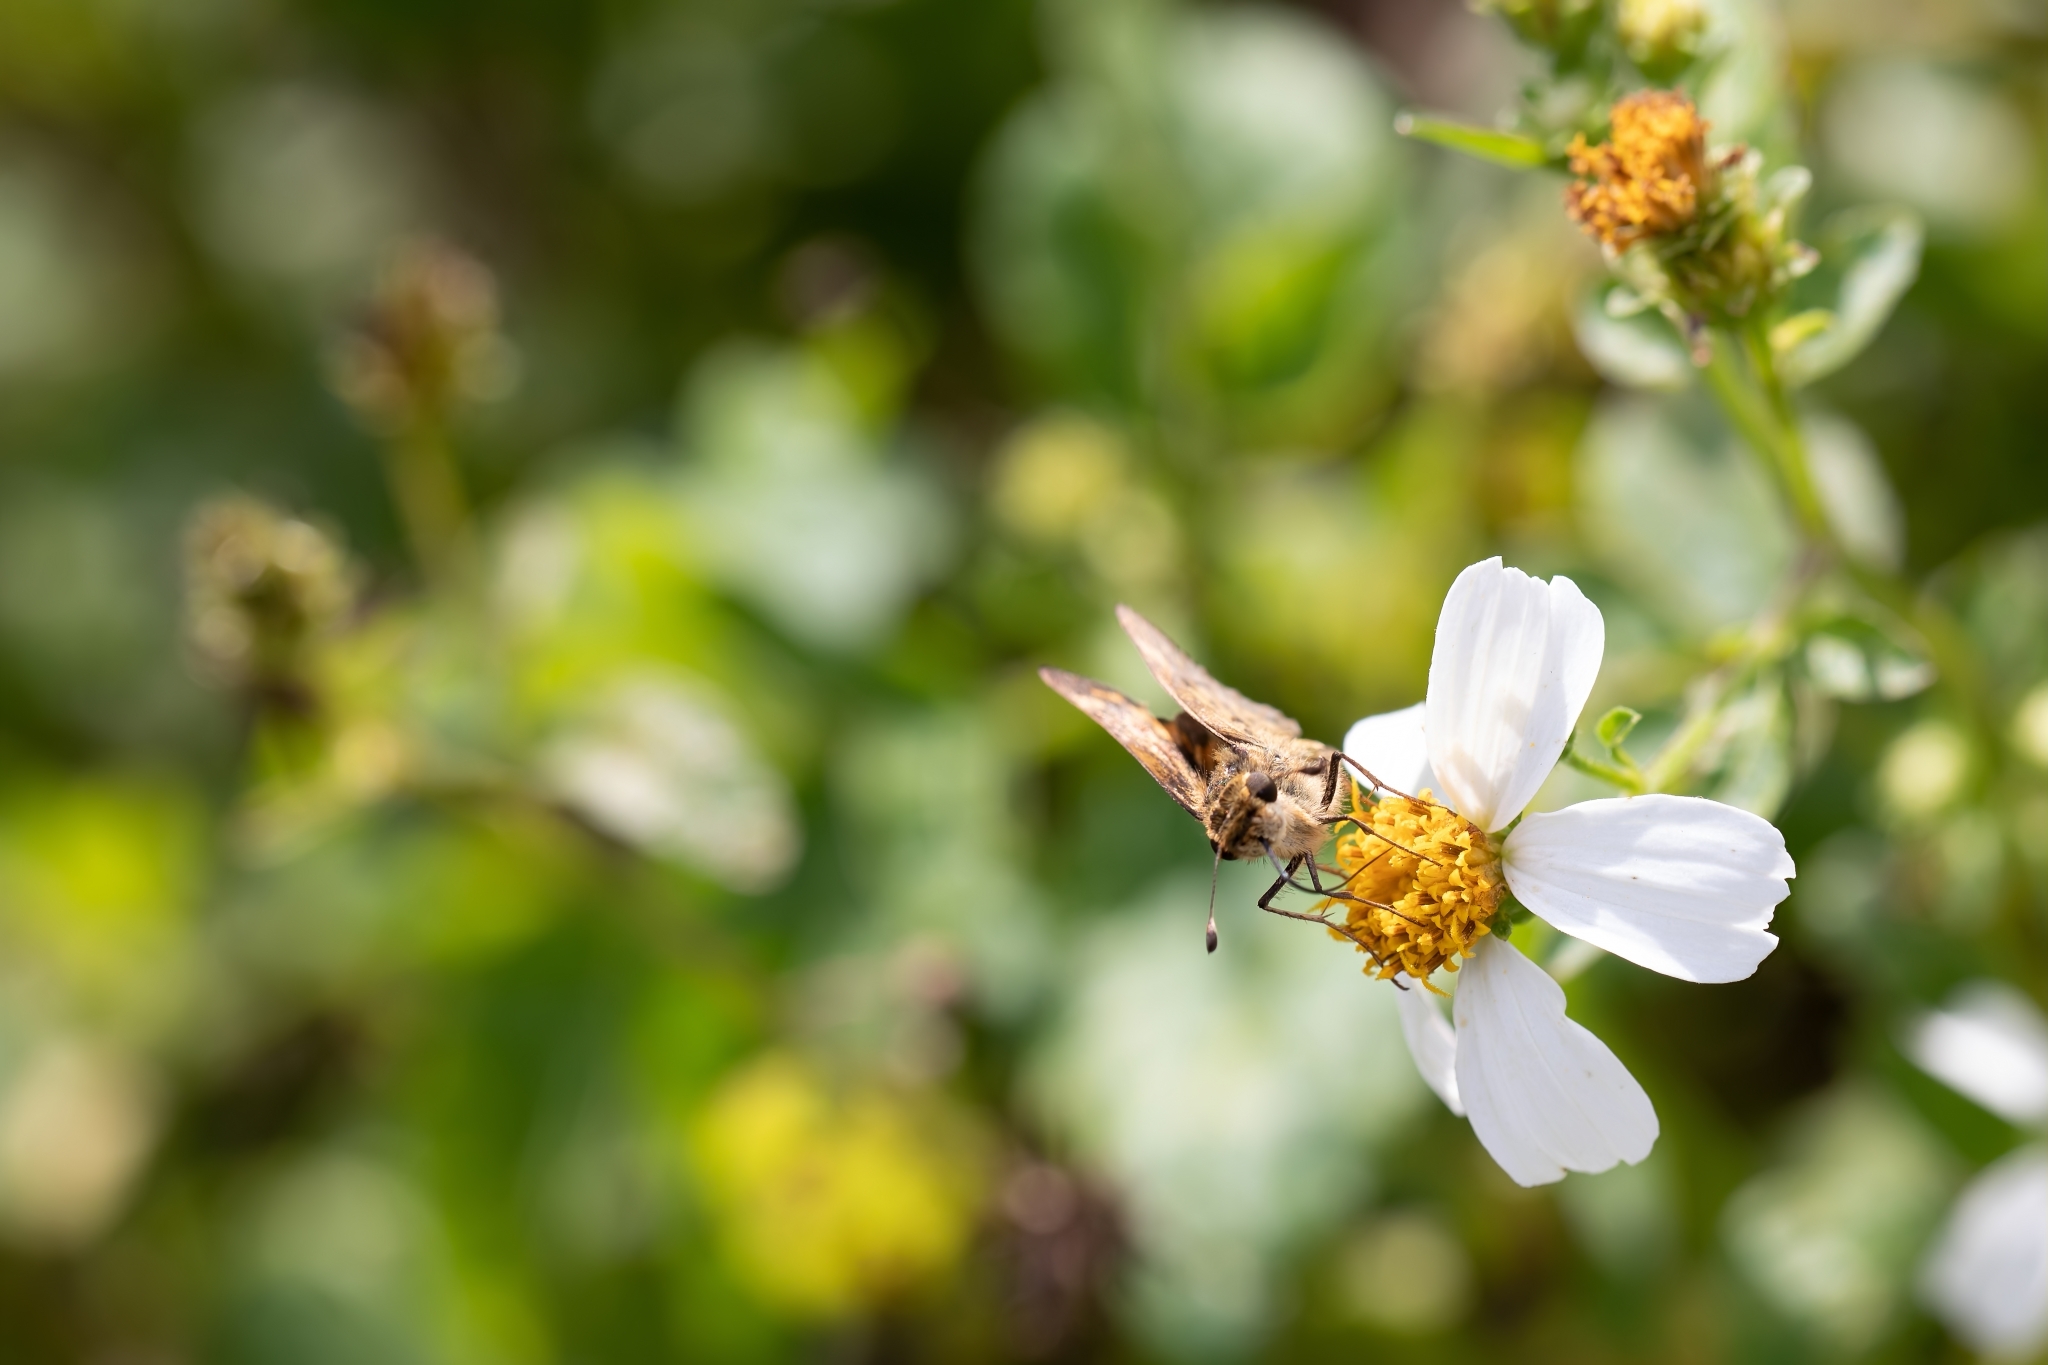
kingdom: Animalia
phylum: Arthropoda
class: Insecta
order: Lepidoptera
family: Hesperiidae
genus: Hylephila
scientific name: Hylephila phyleus
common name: Fiery skipper
